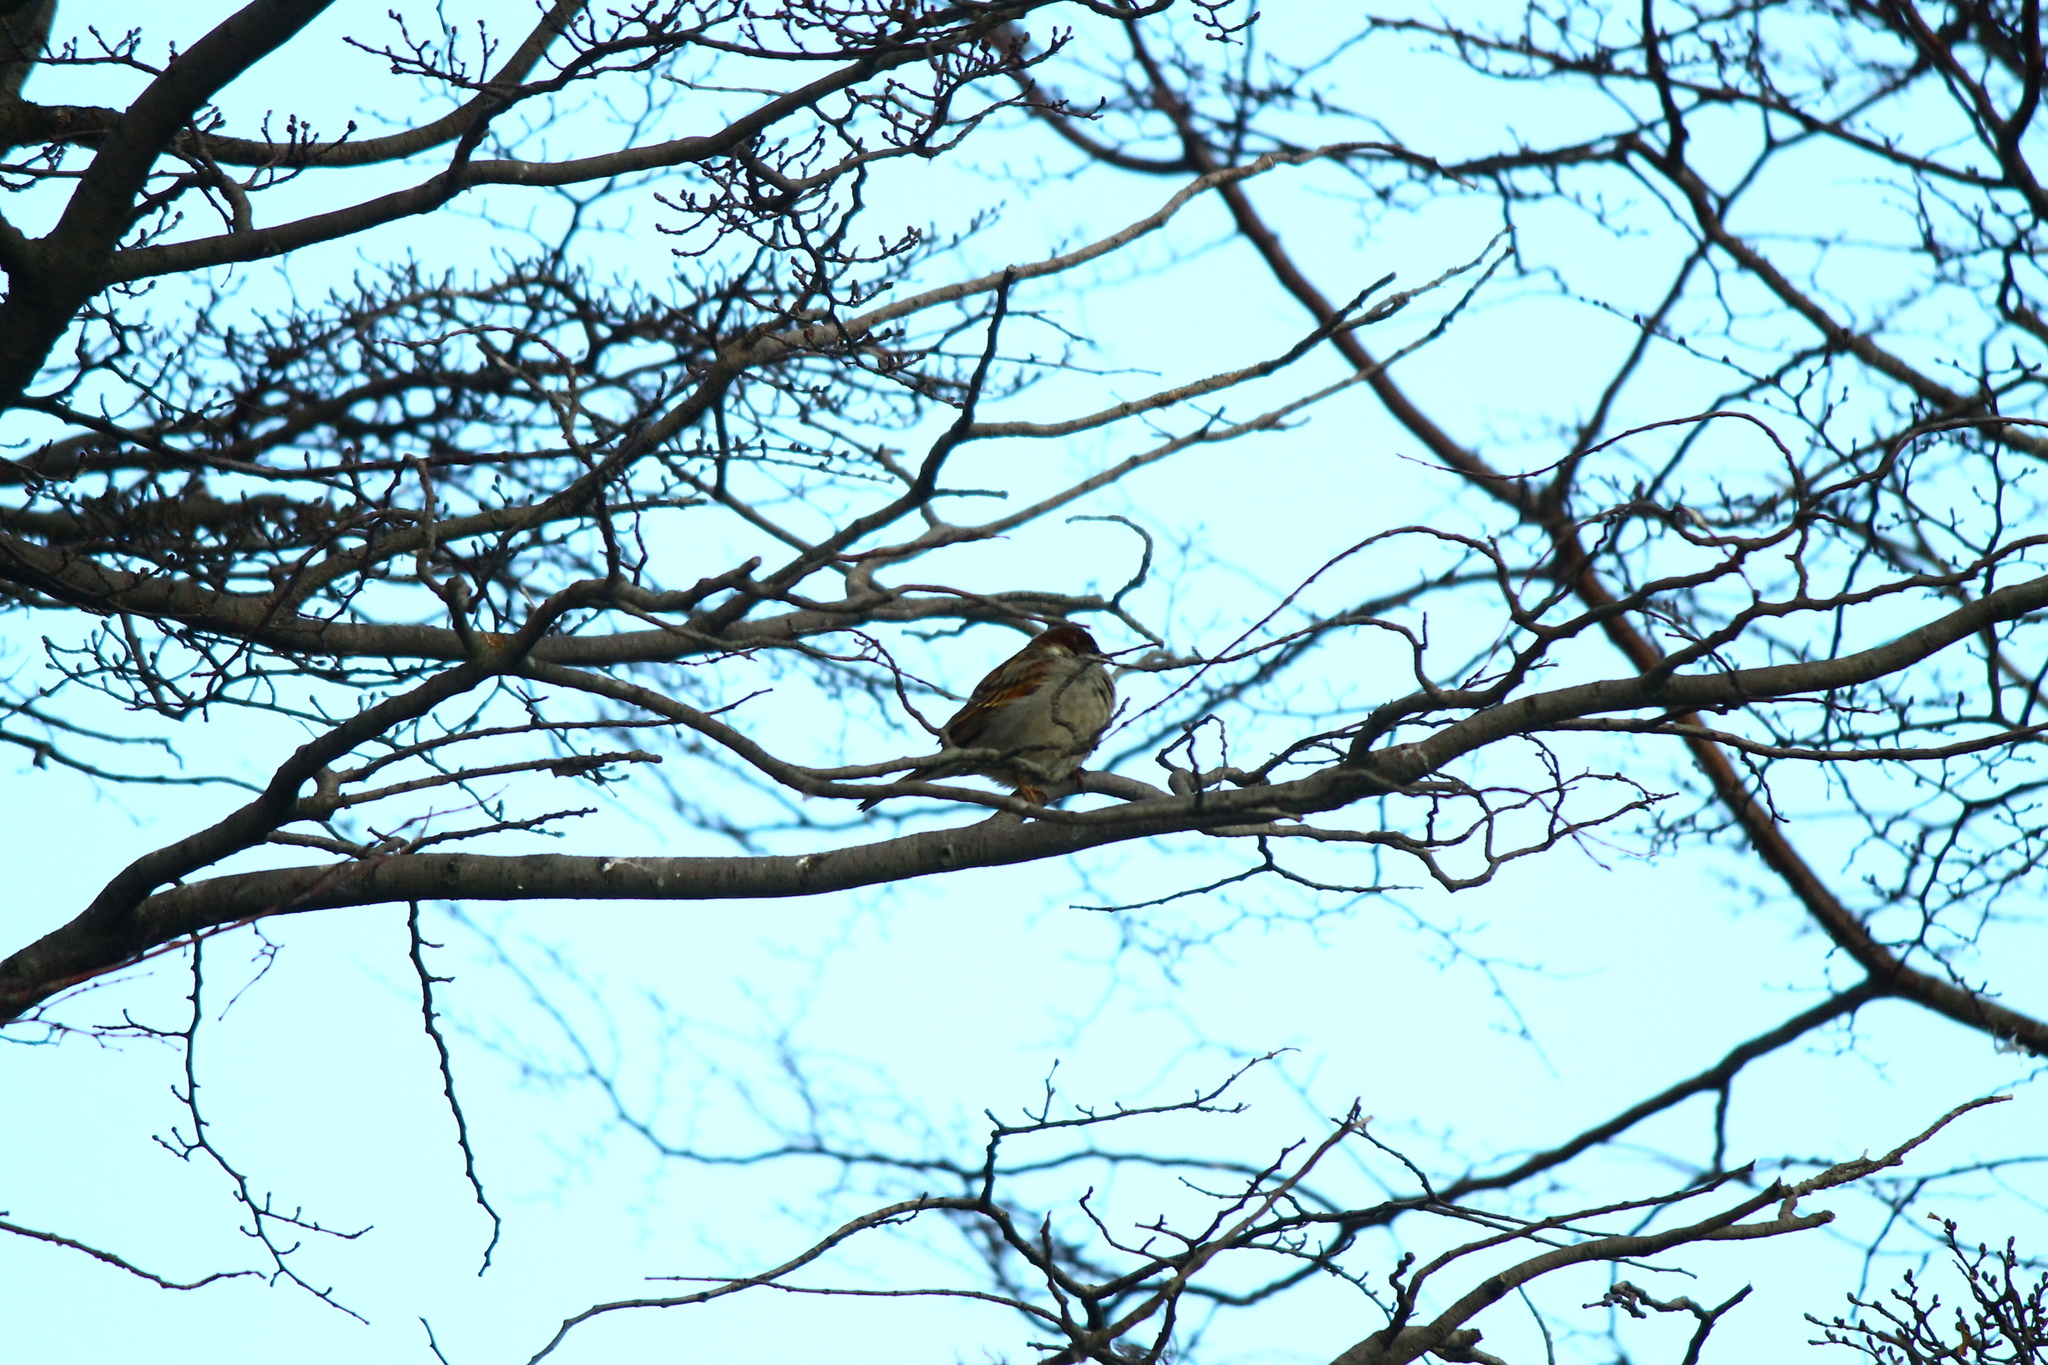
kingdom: Animalia
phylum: Chordata
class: Aves
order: Passeriformes
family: Passeridae
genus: Passer
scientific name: Passer domesticus
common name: House sparrow
